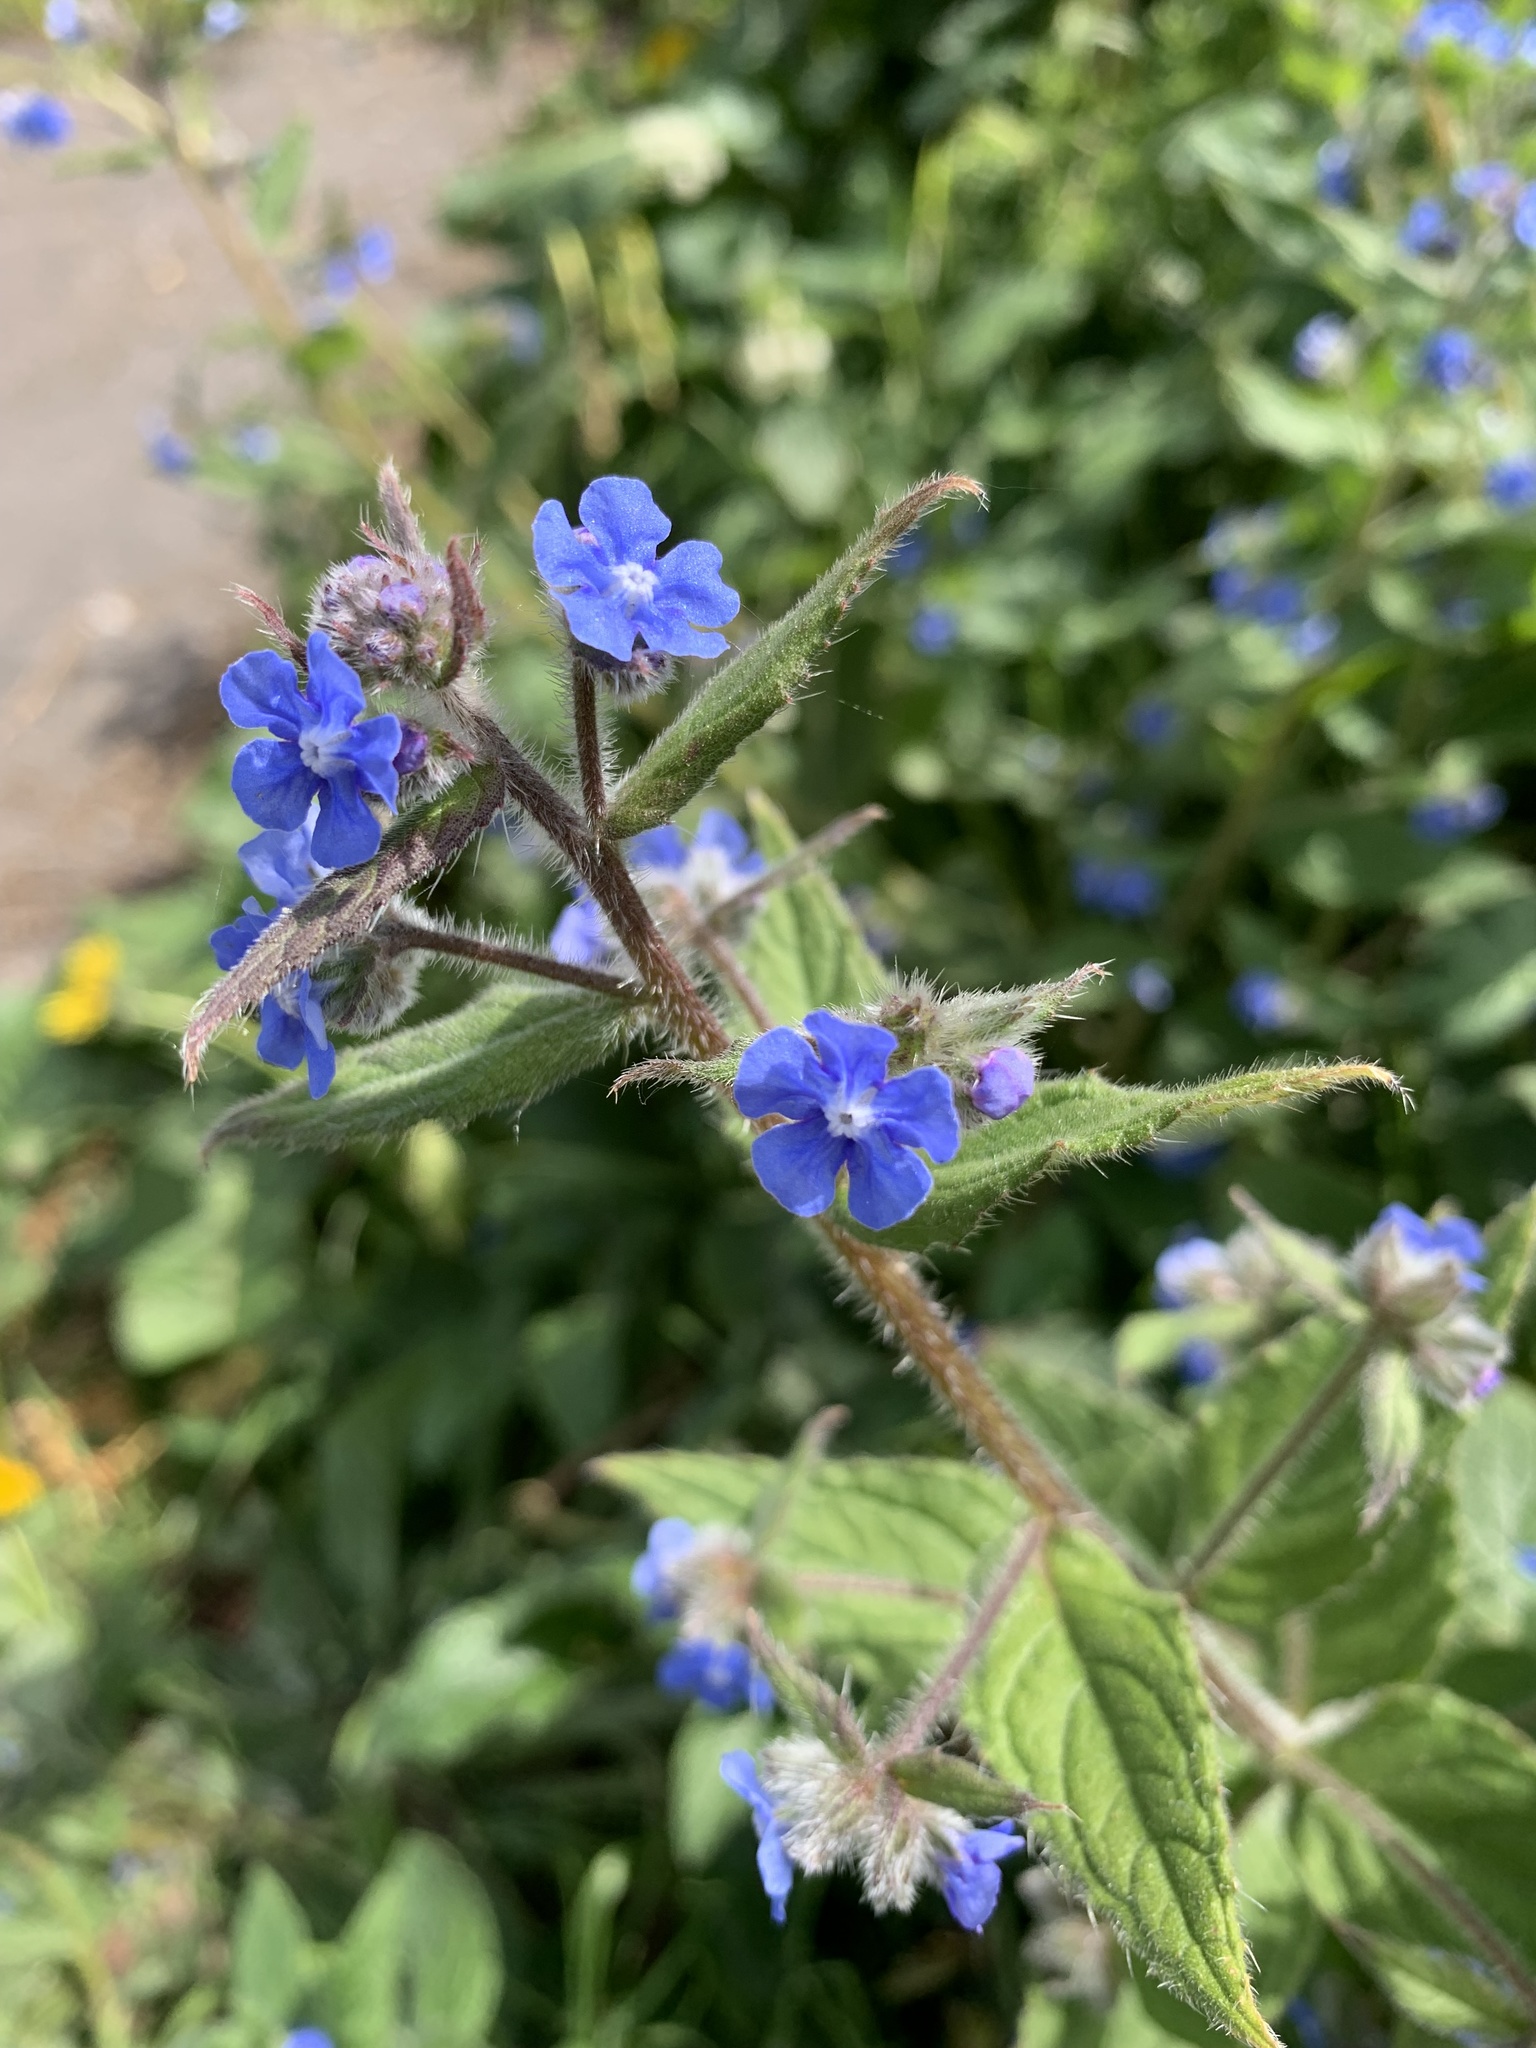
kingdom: Plantae
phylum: Tracheophyta
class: Magnoliopsida
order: Boraginales
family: Boraginaceae
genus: Pentaglottis
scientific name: Pentaglottis sempervirens
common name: Green alkanet
